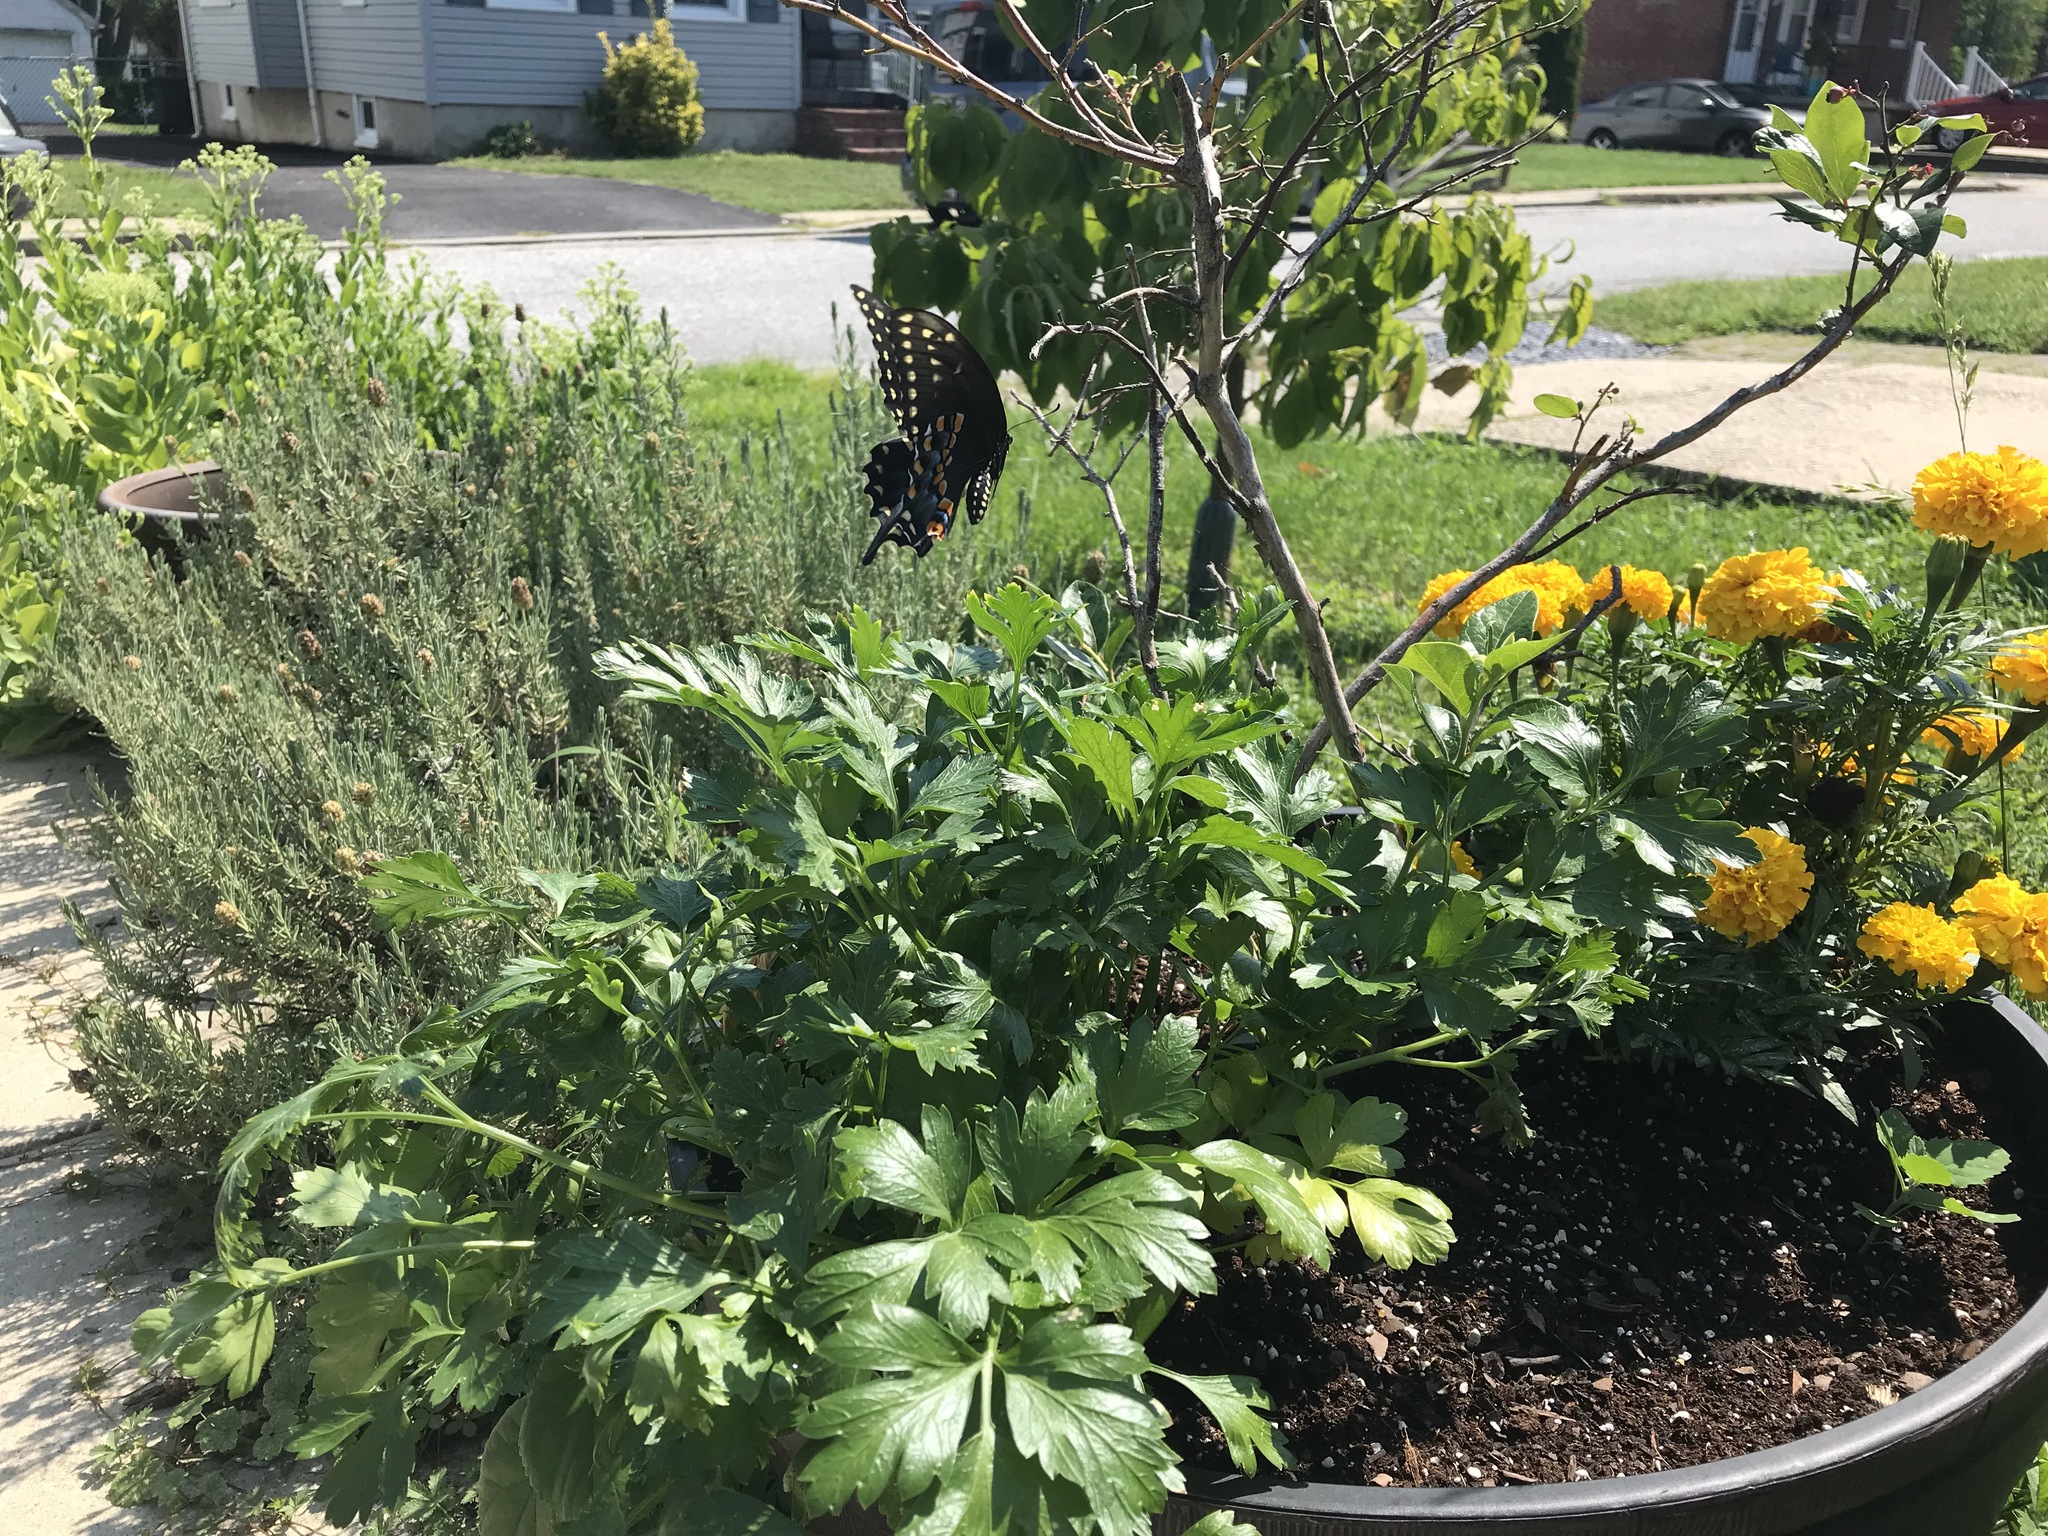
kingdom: Animalia
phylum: Arthropoda
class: Insecta
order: Lepidoptera
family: Papilionidae
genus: Papilio
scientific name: Papilio polyxenes
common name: Black swallowtail
